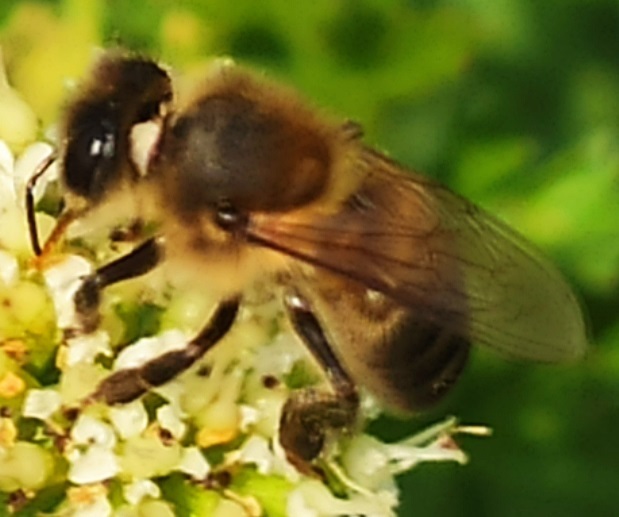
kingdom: Animalia
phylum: Arthropoda
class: Insecta
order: Hymenoptera
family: Apidae
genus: Apis
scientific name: Apis mellifera
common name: Honey bee
